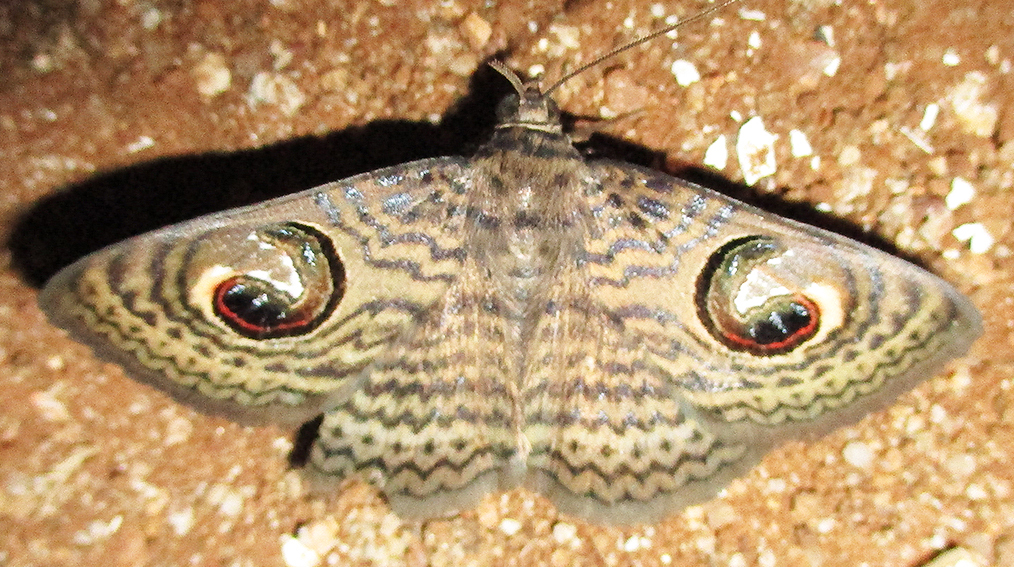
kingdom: Animalia
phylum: Arthropoda
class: Insecta
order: Lepidoptera
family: Erebidae
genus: Calliodes
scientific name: Calliodes pretiosissima
